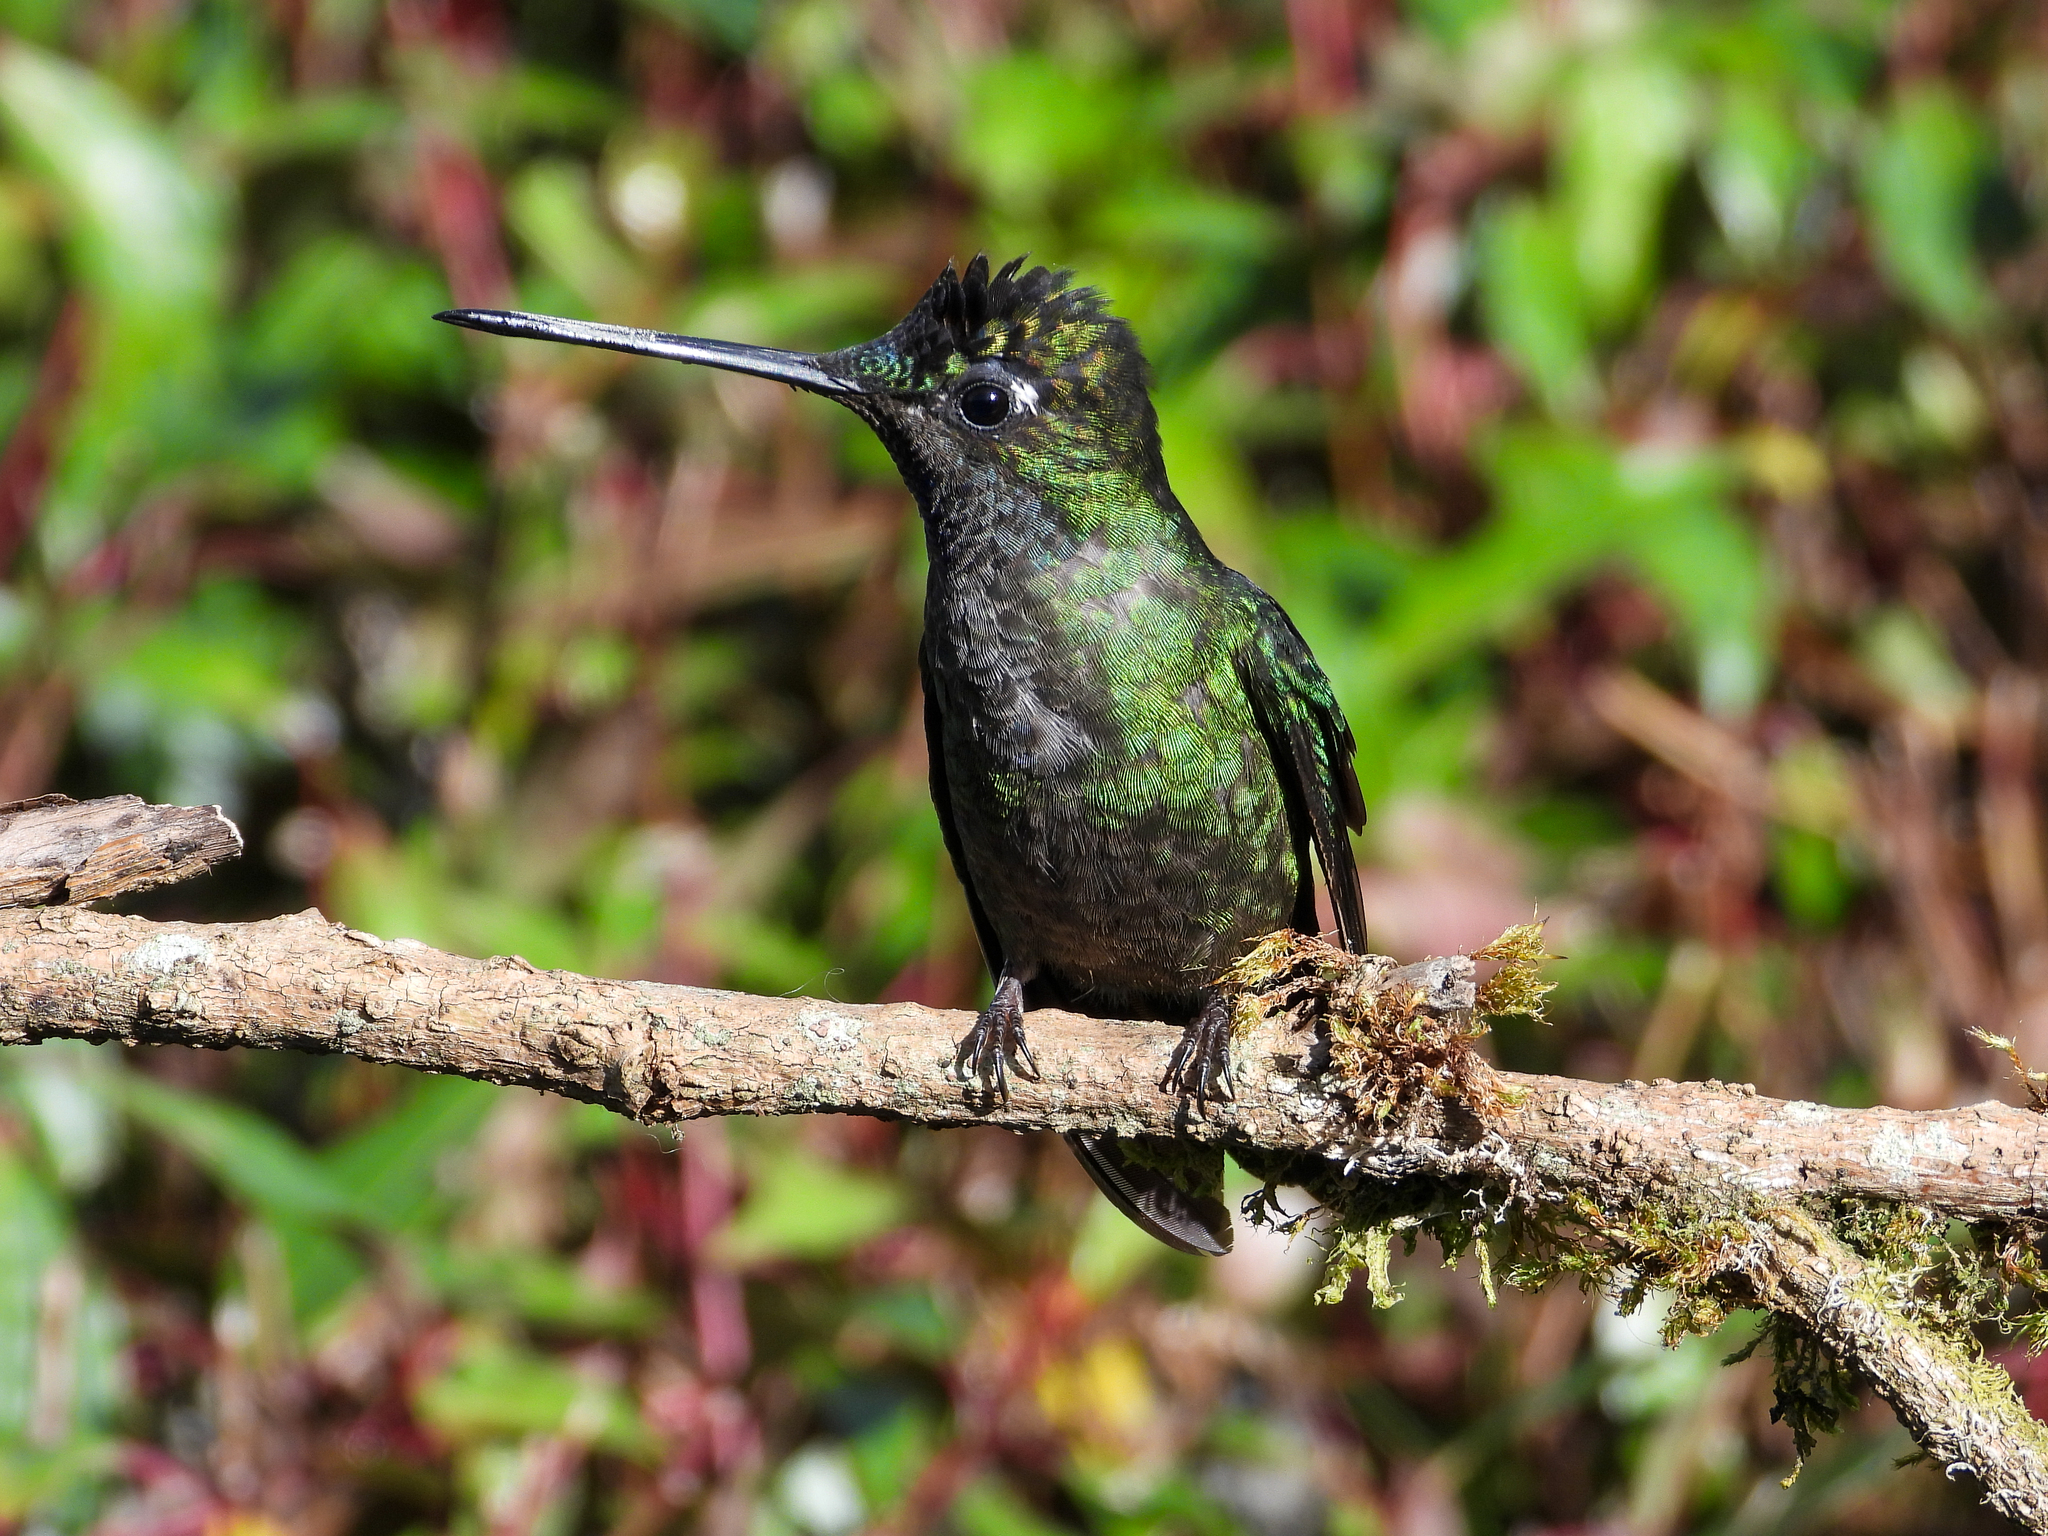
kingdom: Animalia
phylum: Chordata
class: Aves
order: Apodiformes
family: Trochilidae
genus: Eugenes
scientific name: Eugenes spectabilis
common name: Talamanca hummingbird
